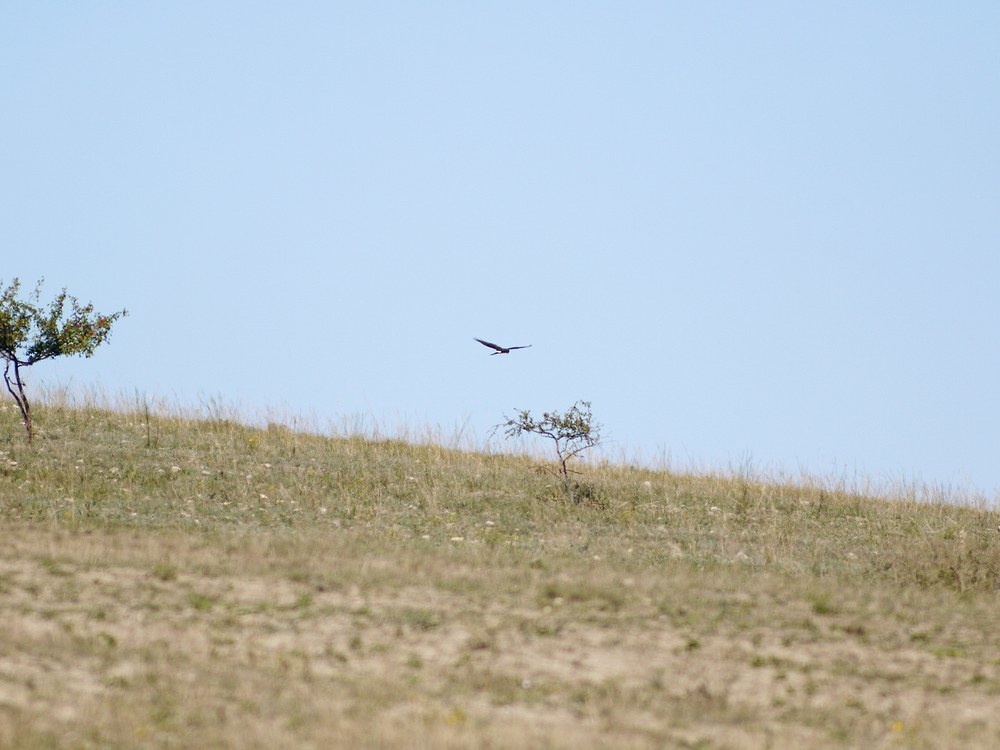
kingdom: Animalia
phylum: Chordata
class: Aves
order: Accipitriformes
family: Accipitridae
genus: Circus
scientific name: Circus
